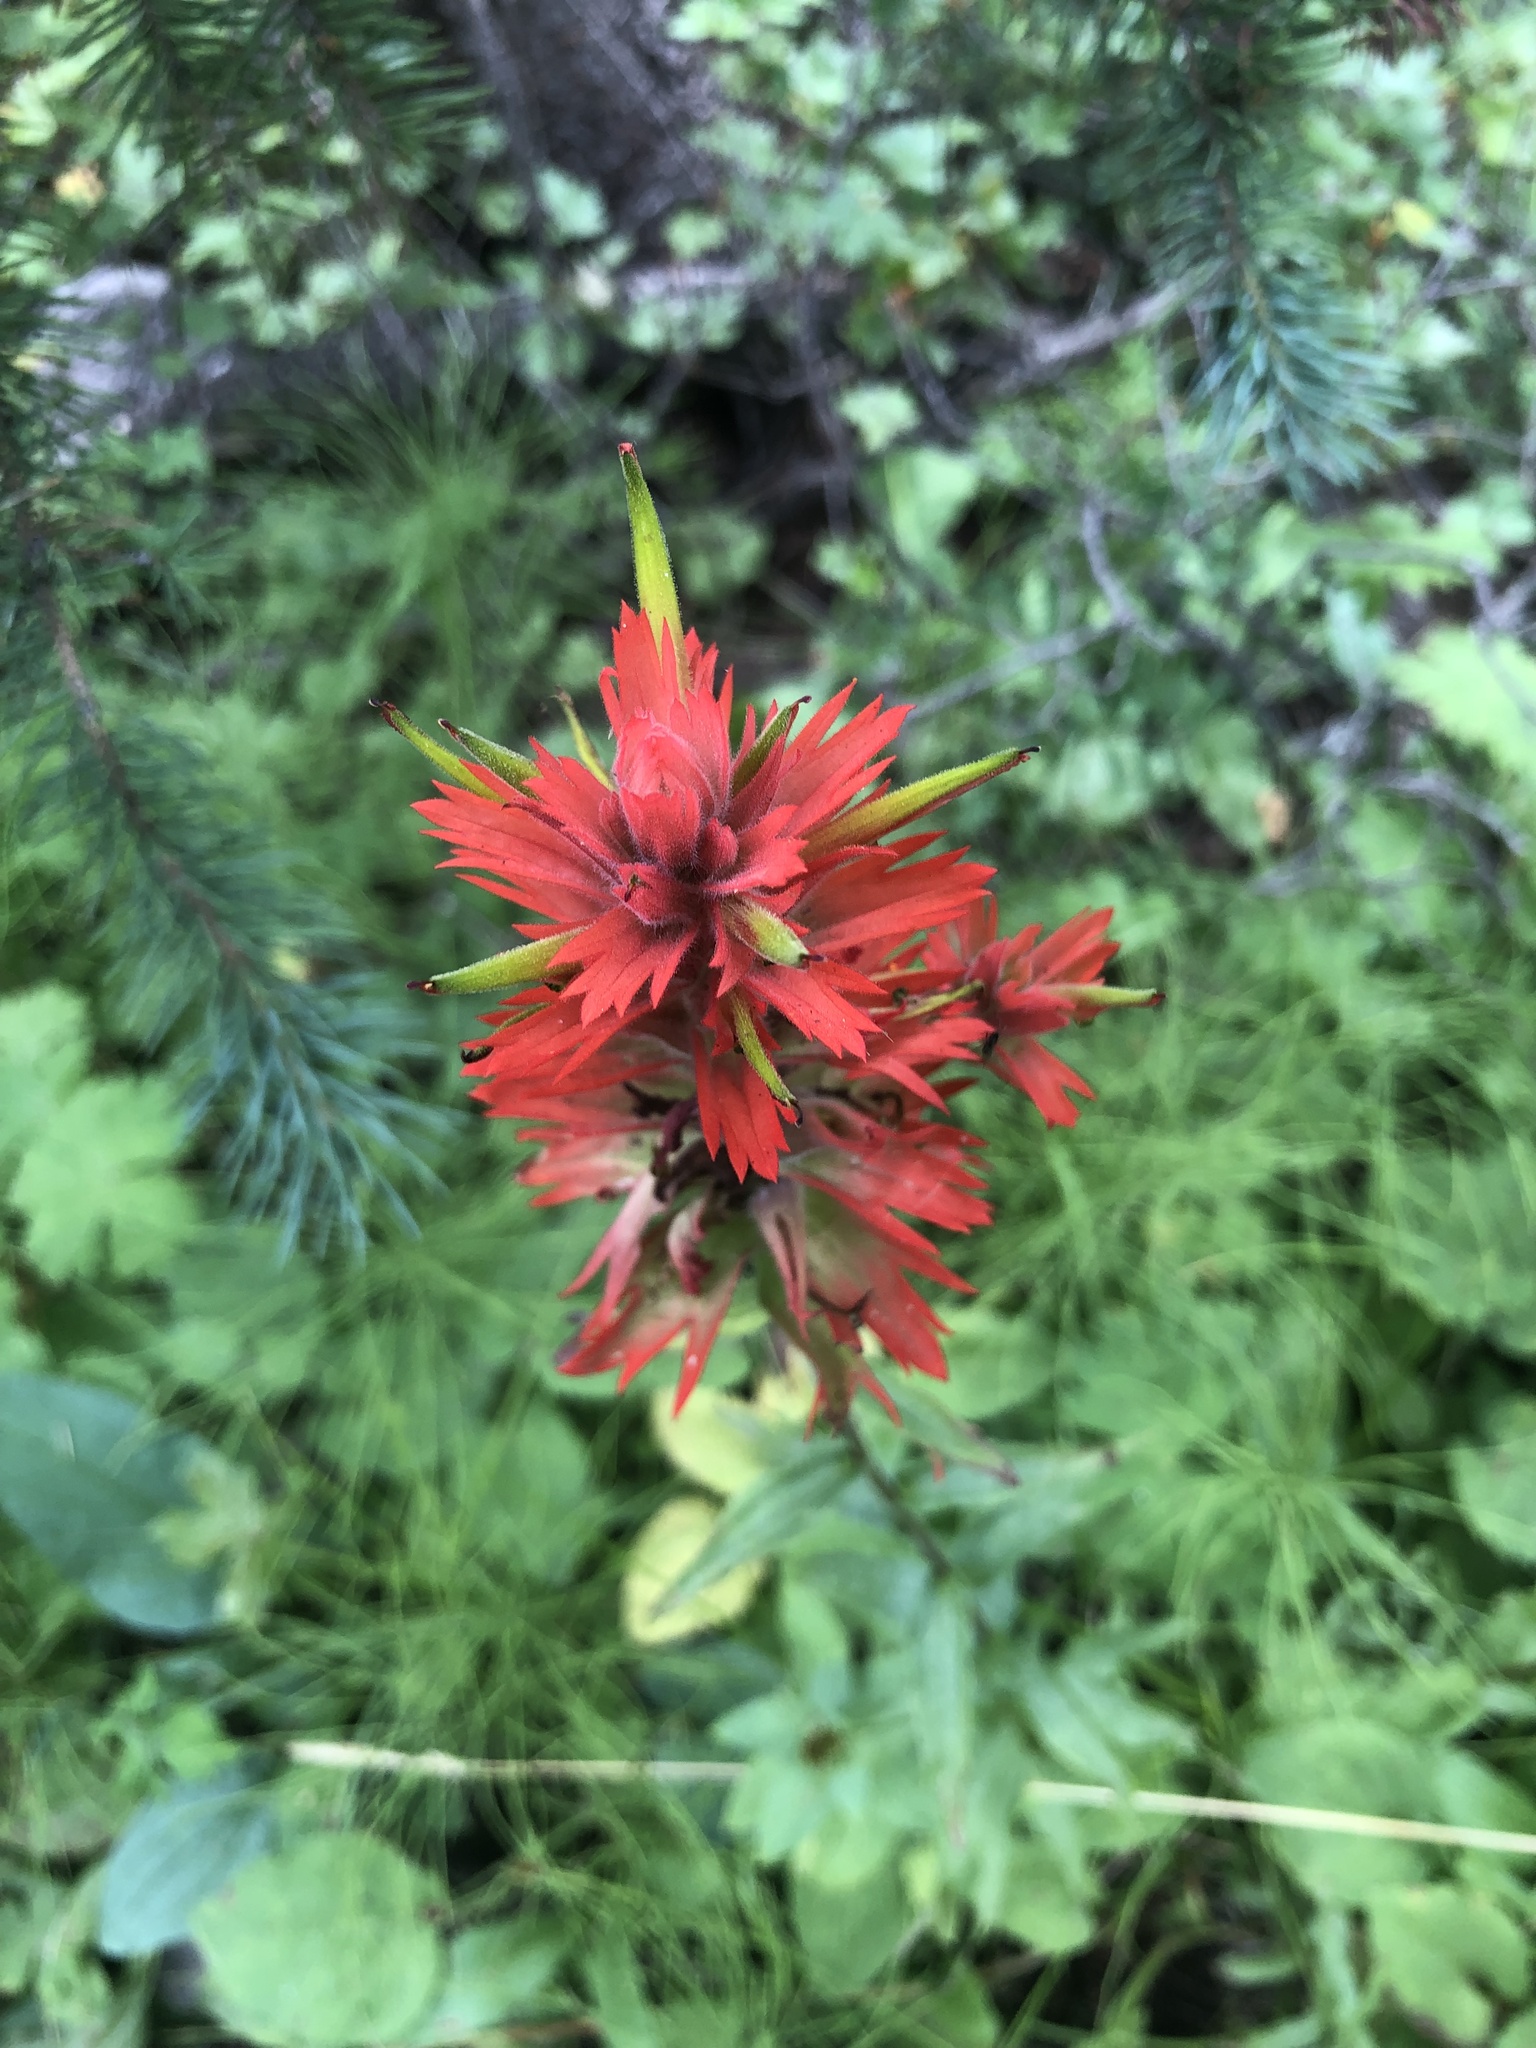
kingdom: Plantae
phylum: Tracheophyta
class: Magnoliopsida
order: Lamiales
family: Orobanchaceae
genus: Castilleja
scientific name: Castilleja miniata
